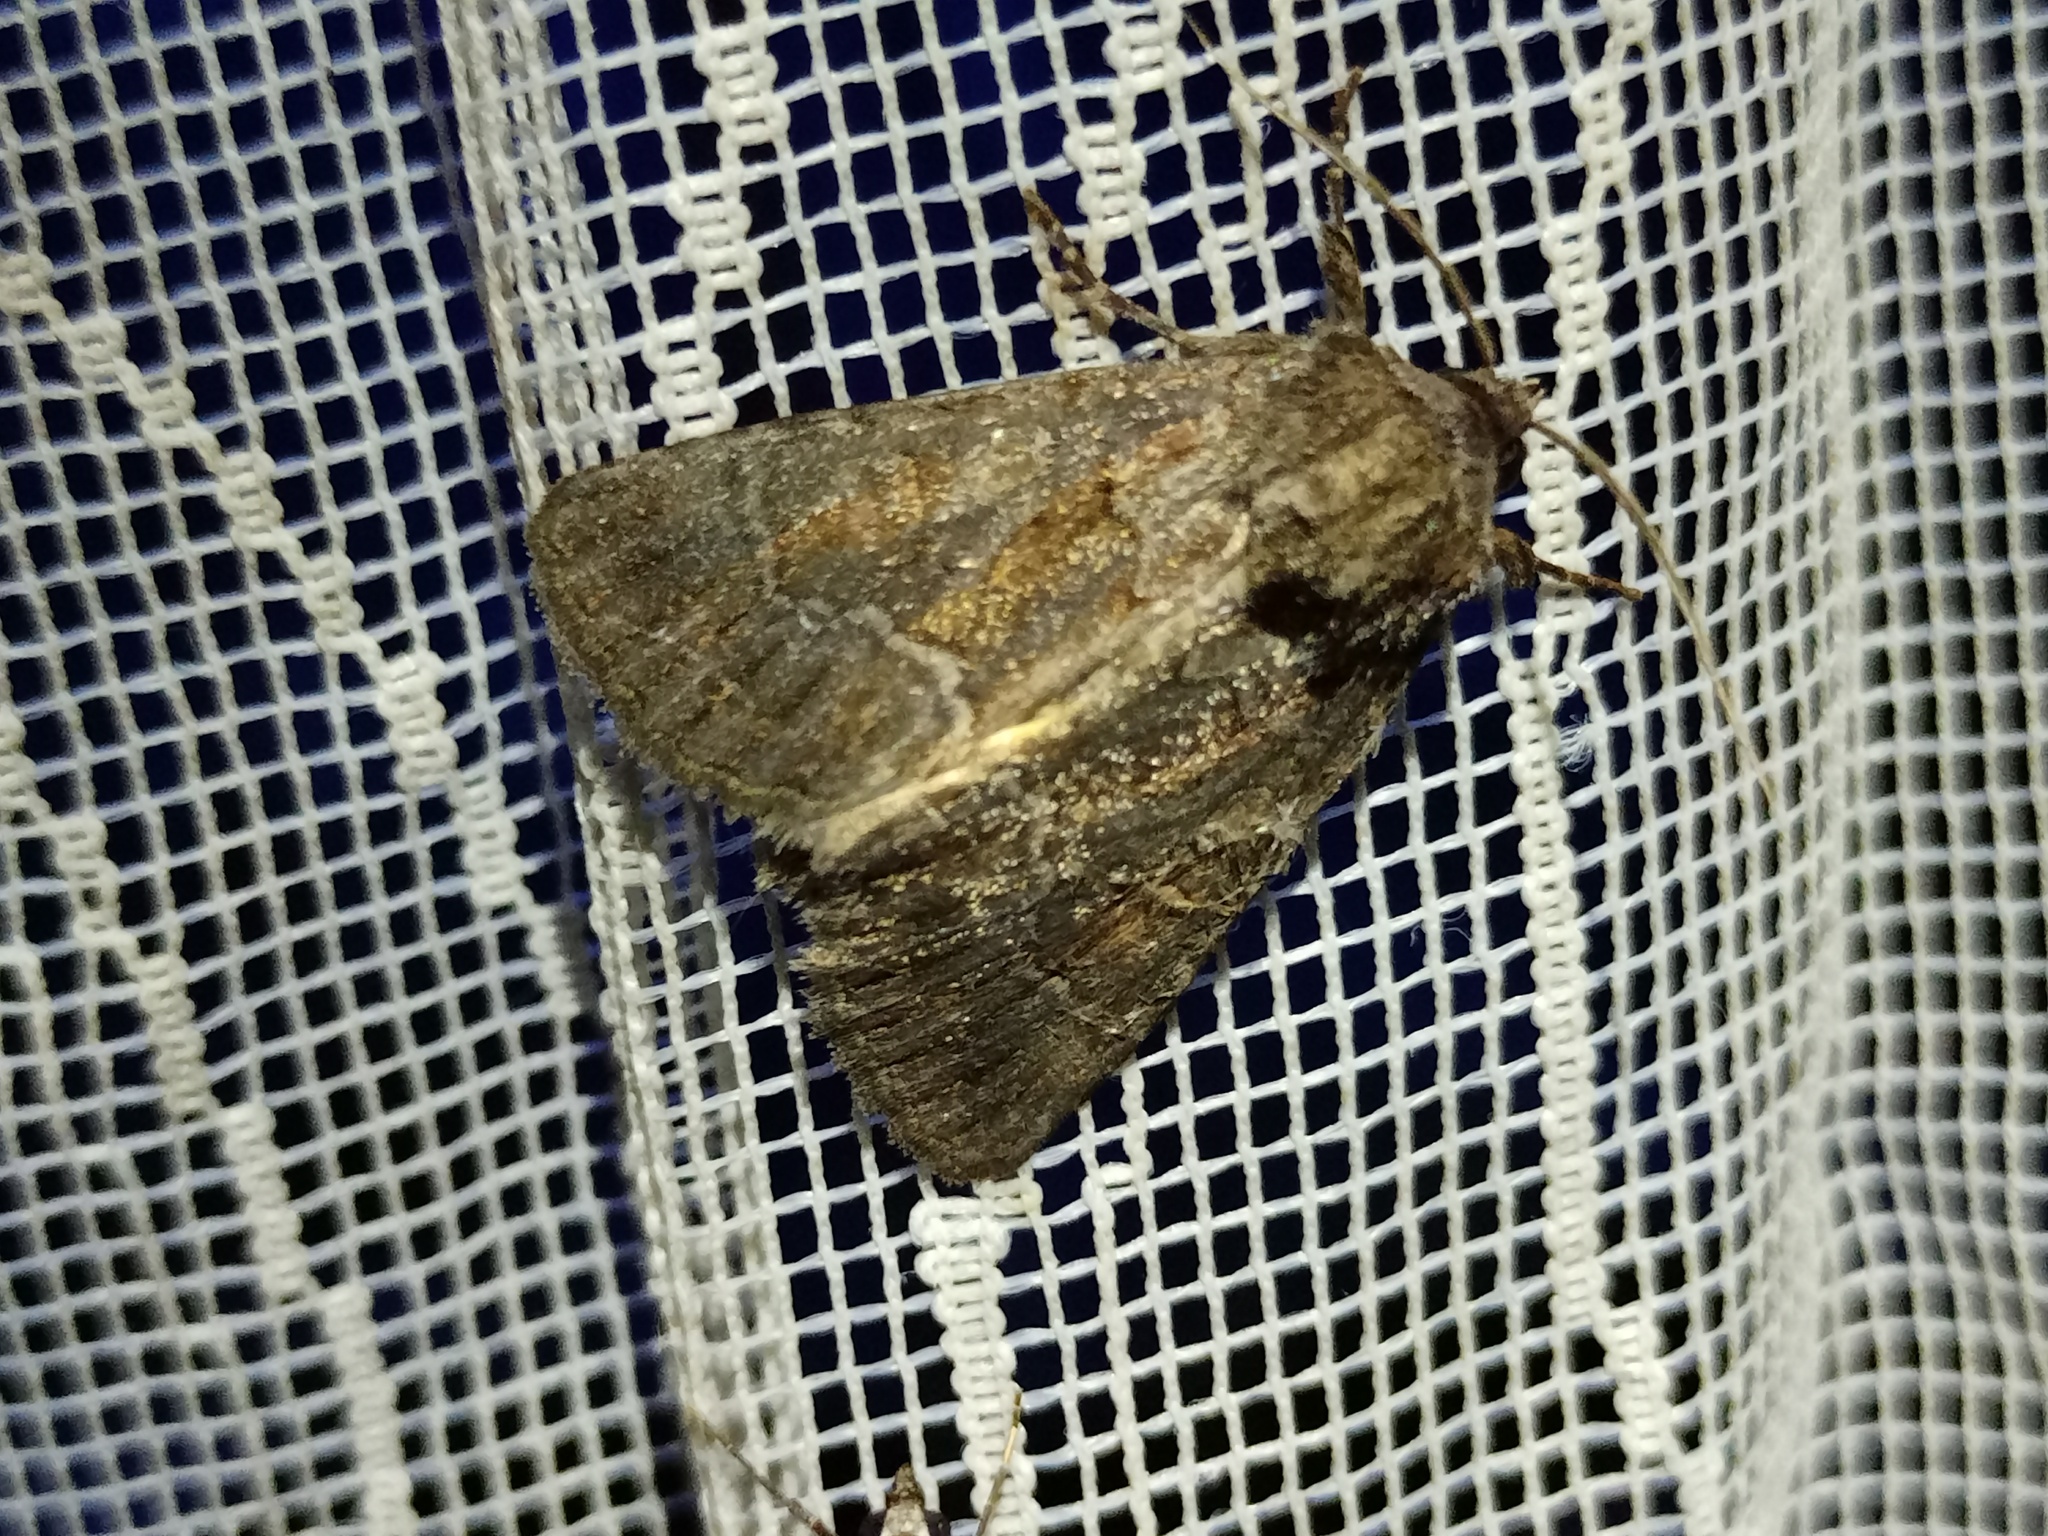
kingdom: Animalia
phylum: Arthropoda
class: Insecta
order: Lepidoptera
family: Noctuidae
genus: Thalpophila
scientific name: Thalpophila matura
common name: Straw underwing
